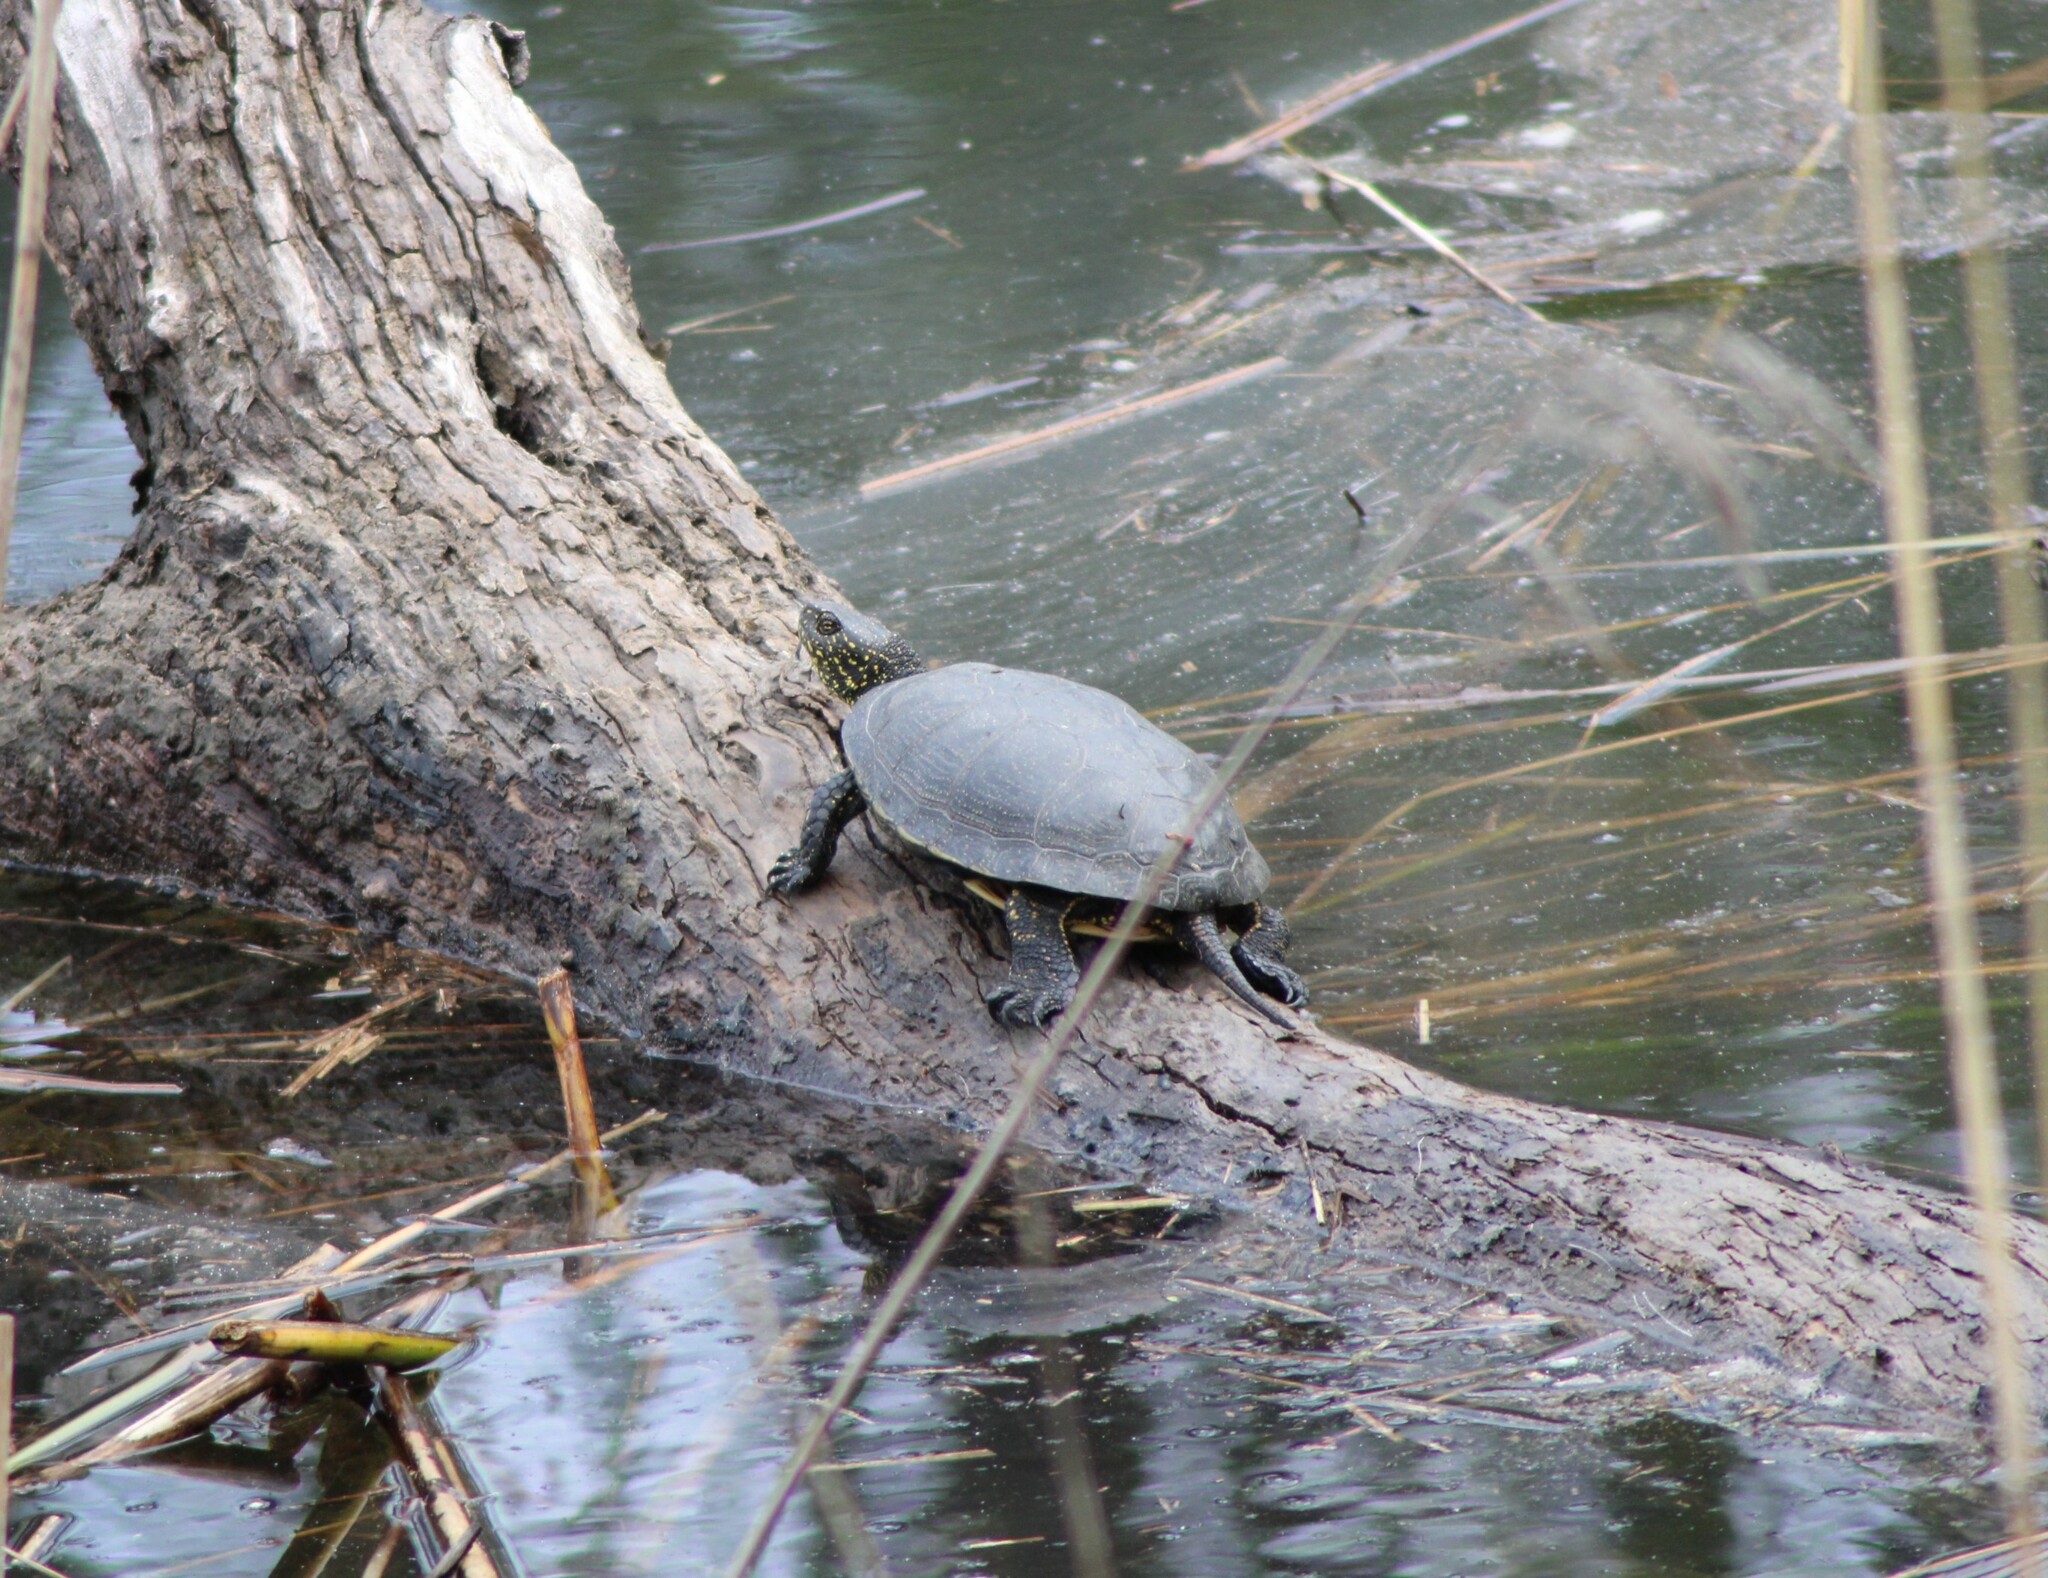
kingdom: Animalia
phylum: Chordata
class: Testudines
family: Emydidae
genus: Emys
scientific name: Emys orbicularis
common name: European pond turtle
